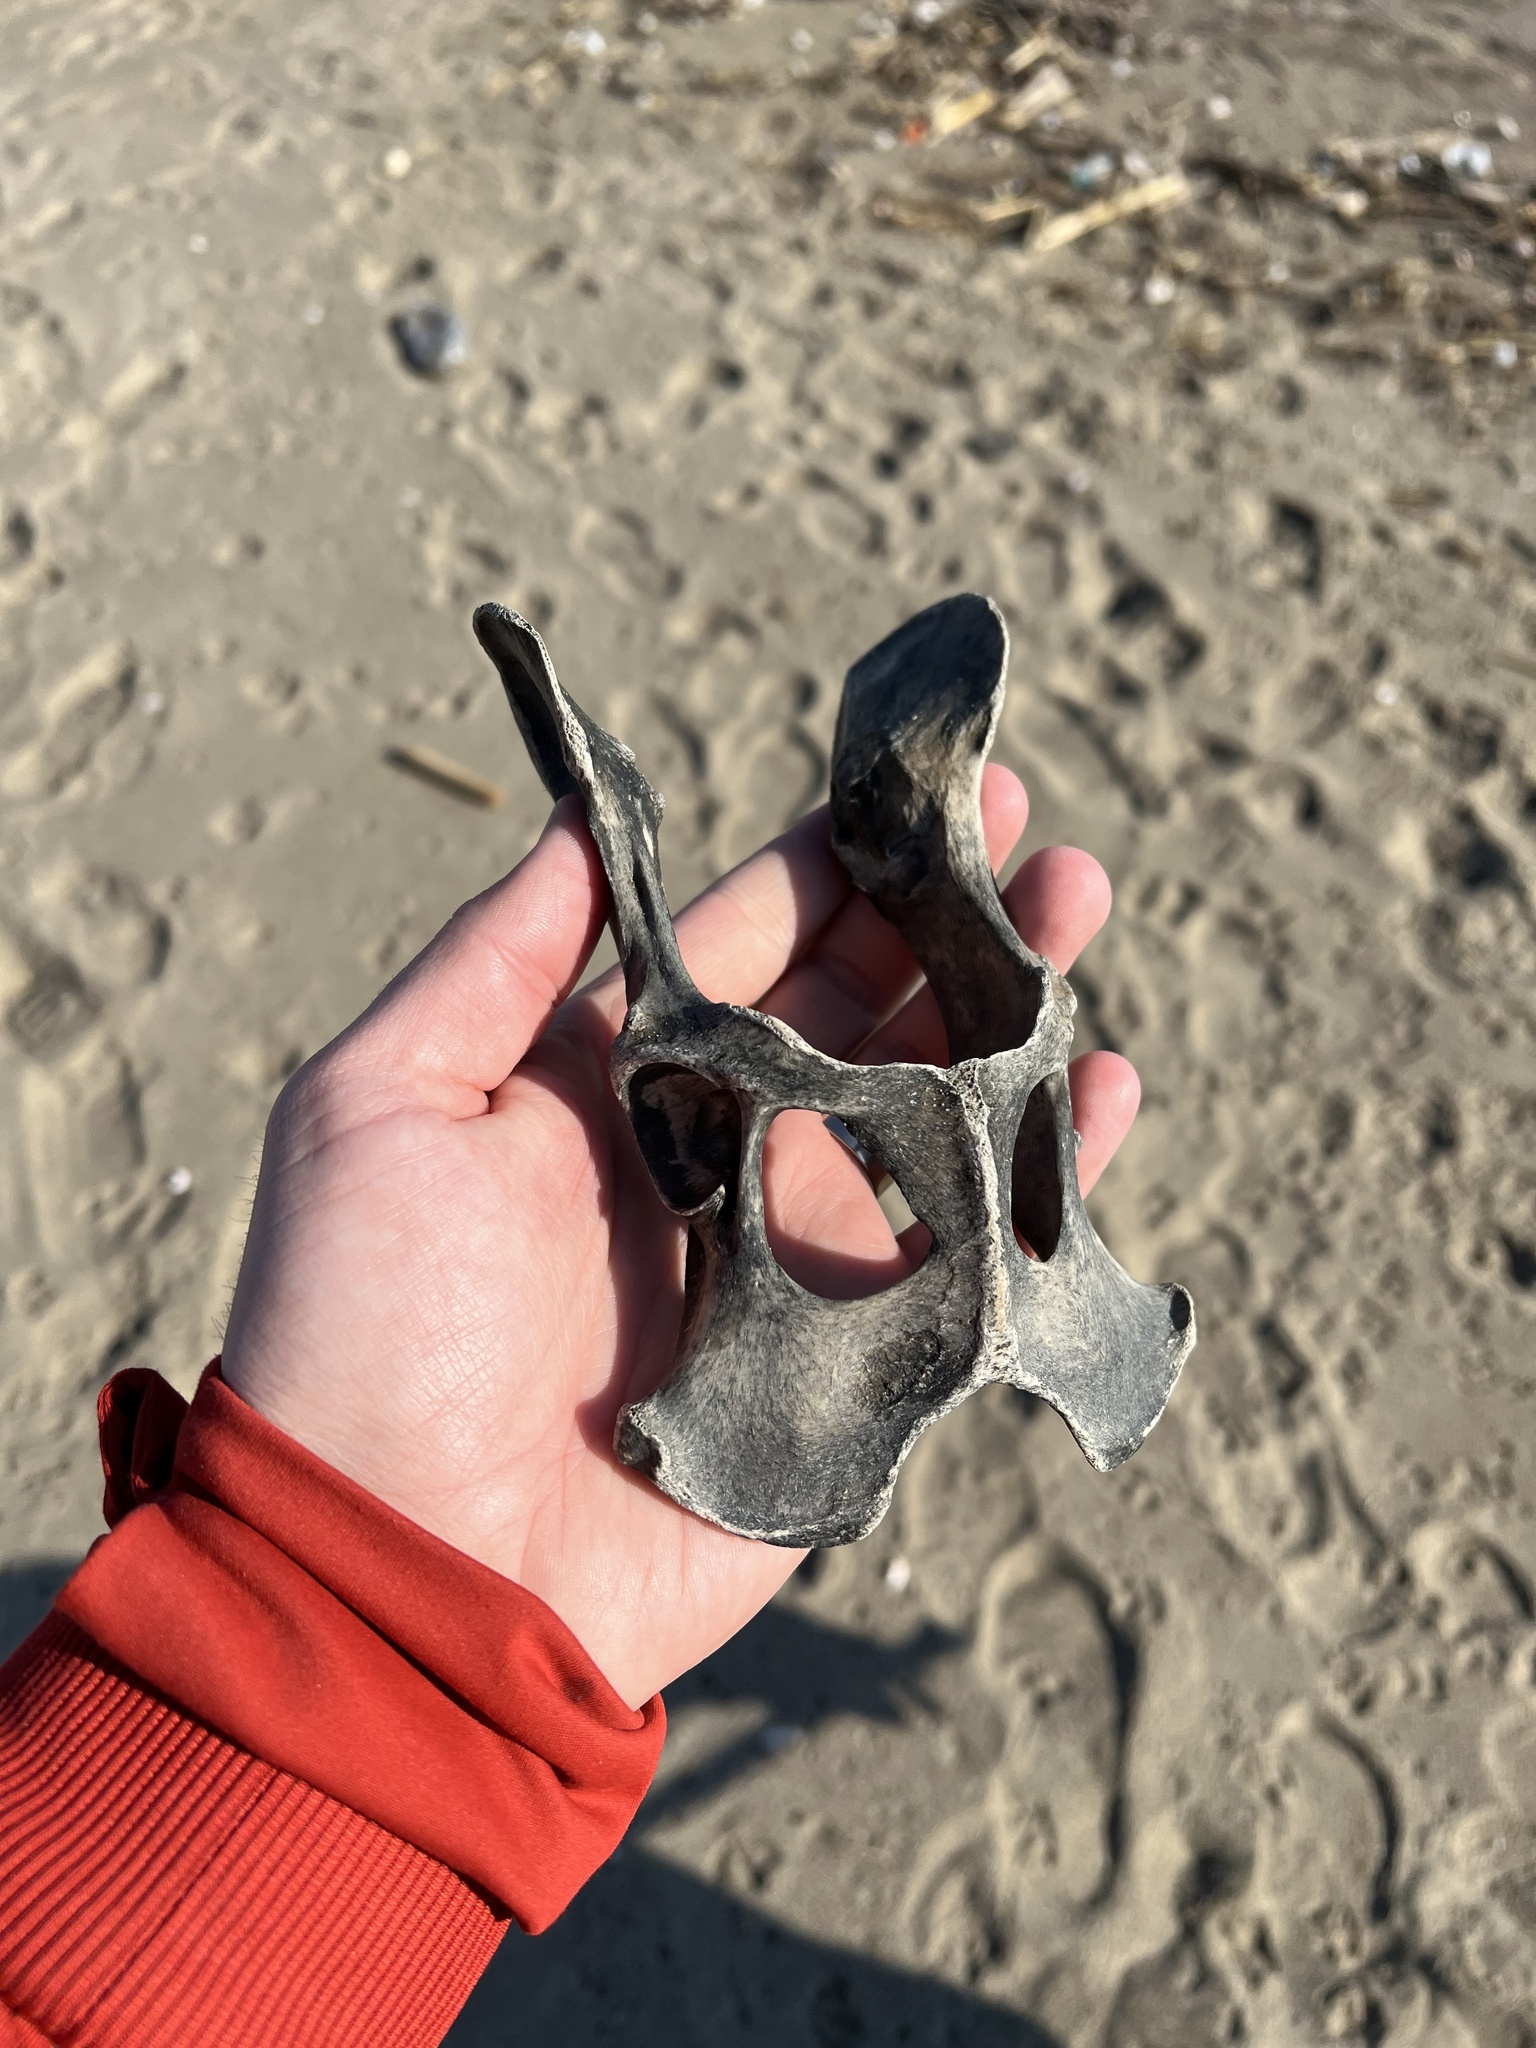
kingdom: Animalia
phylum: Chordata
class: Mammalia
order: Artiodactyla
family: Bovidae
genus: Capra
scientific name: Capra hircus
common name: Domestic goat
